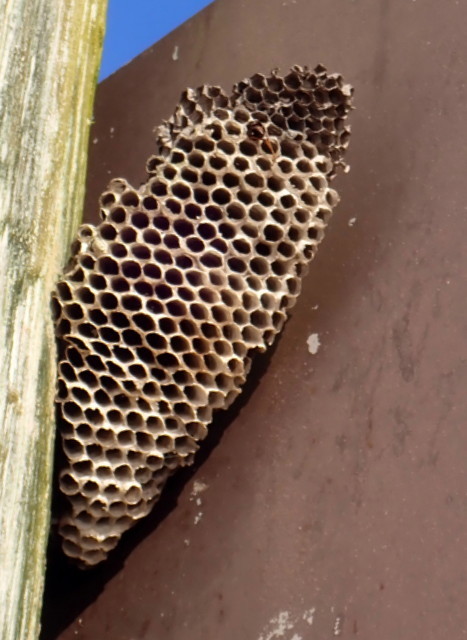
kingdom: Animalia
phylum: Arthropoda
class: Insecta
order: Hymenoptera
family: Eumenidae
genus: Polistes
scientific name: Polistes annularis
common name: Ringed paper wasp
